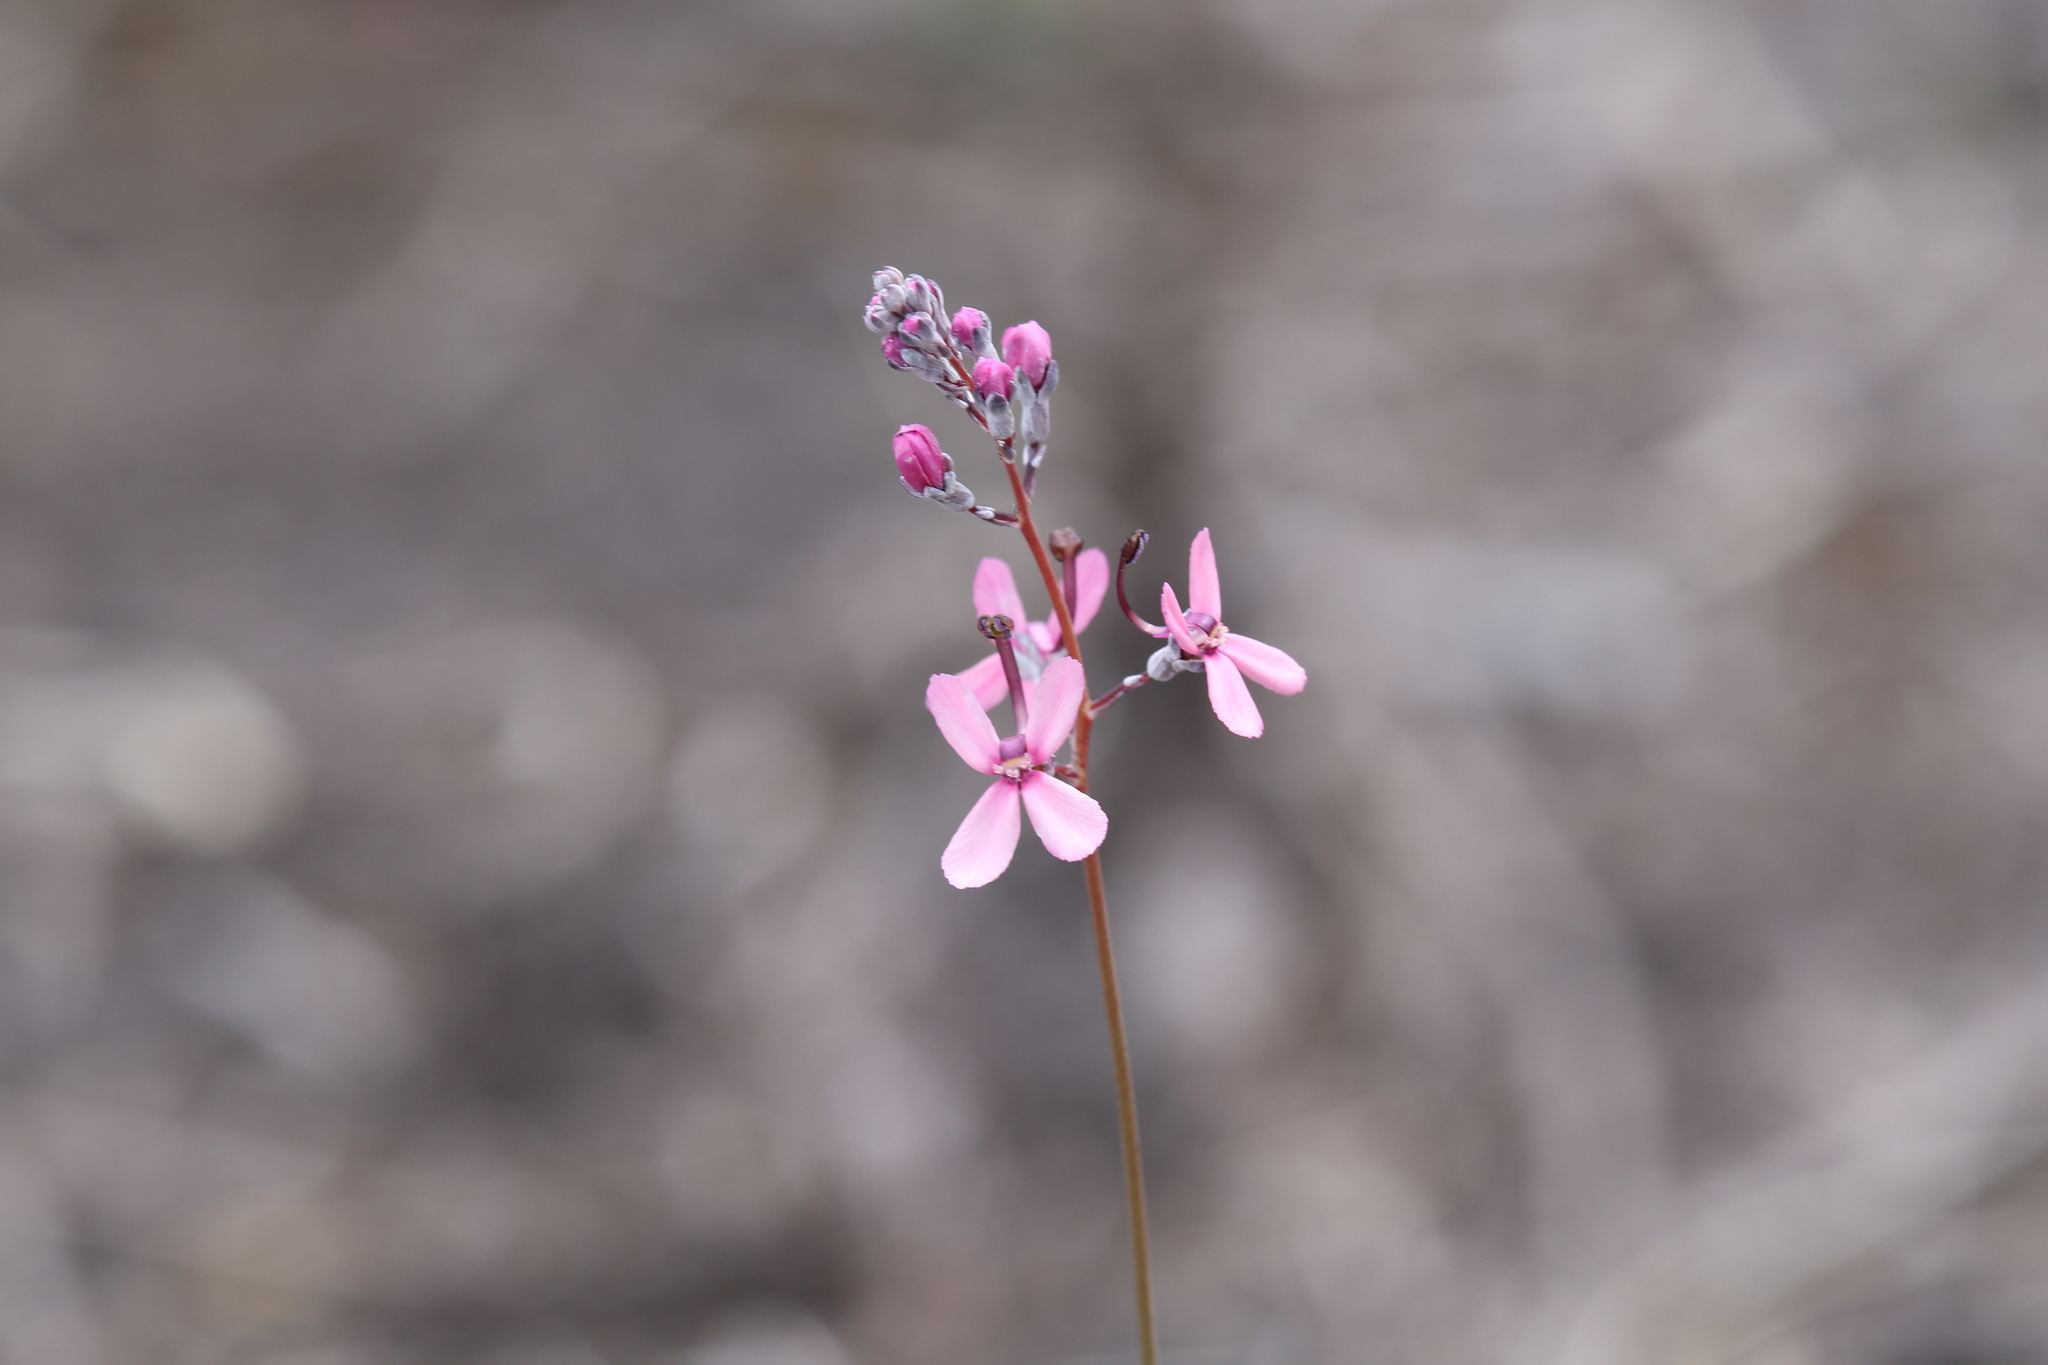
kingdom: Plantae
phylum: Tracheophyta
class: Magnoliopsida
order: Asterales
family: Stylidiaceae
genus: Stylidium
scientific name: Stylidium brunonianum
